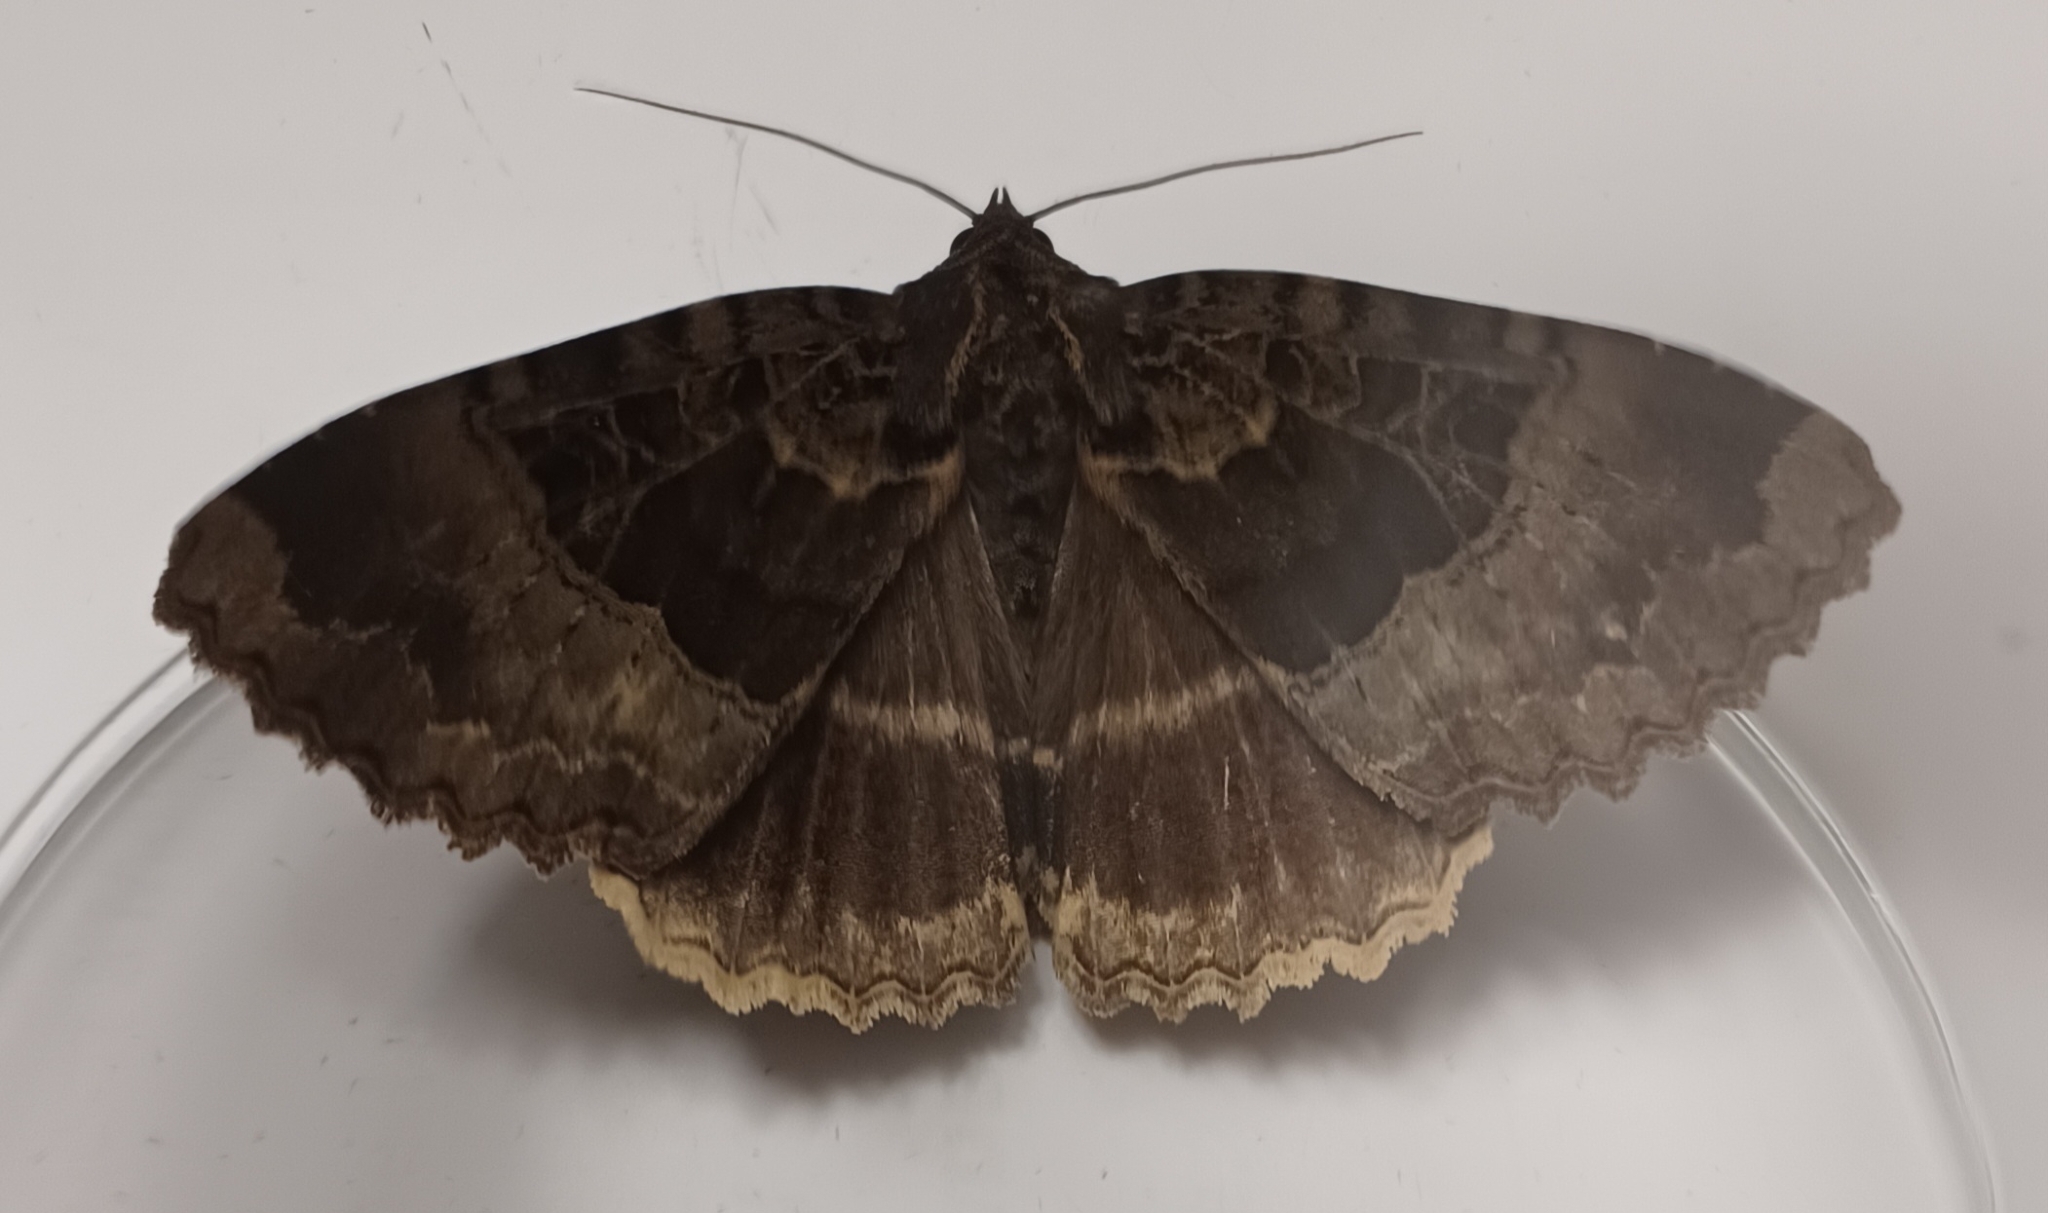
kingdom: Animalia
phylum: Arthropoda
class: Insecta
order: Lepidoptera
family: Noctuidae
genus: Mormo
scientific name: Mormo maura
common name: Old lady
